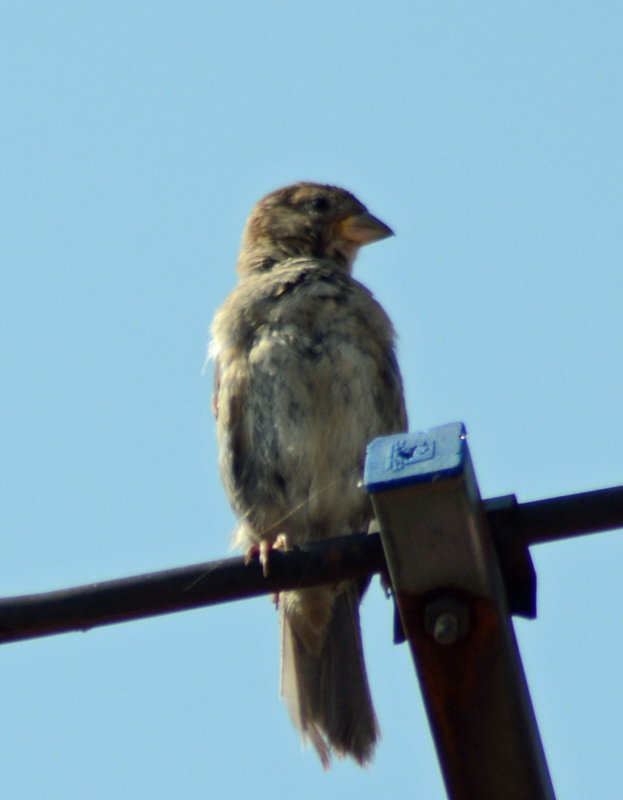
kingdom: Animalia
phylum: Chordata
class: Aves
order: Passeriformes
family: Passeridae
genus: Passer
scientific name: Passer domesticus
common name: House sparrow
